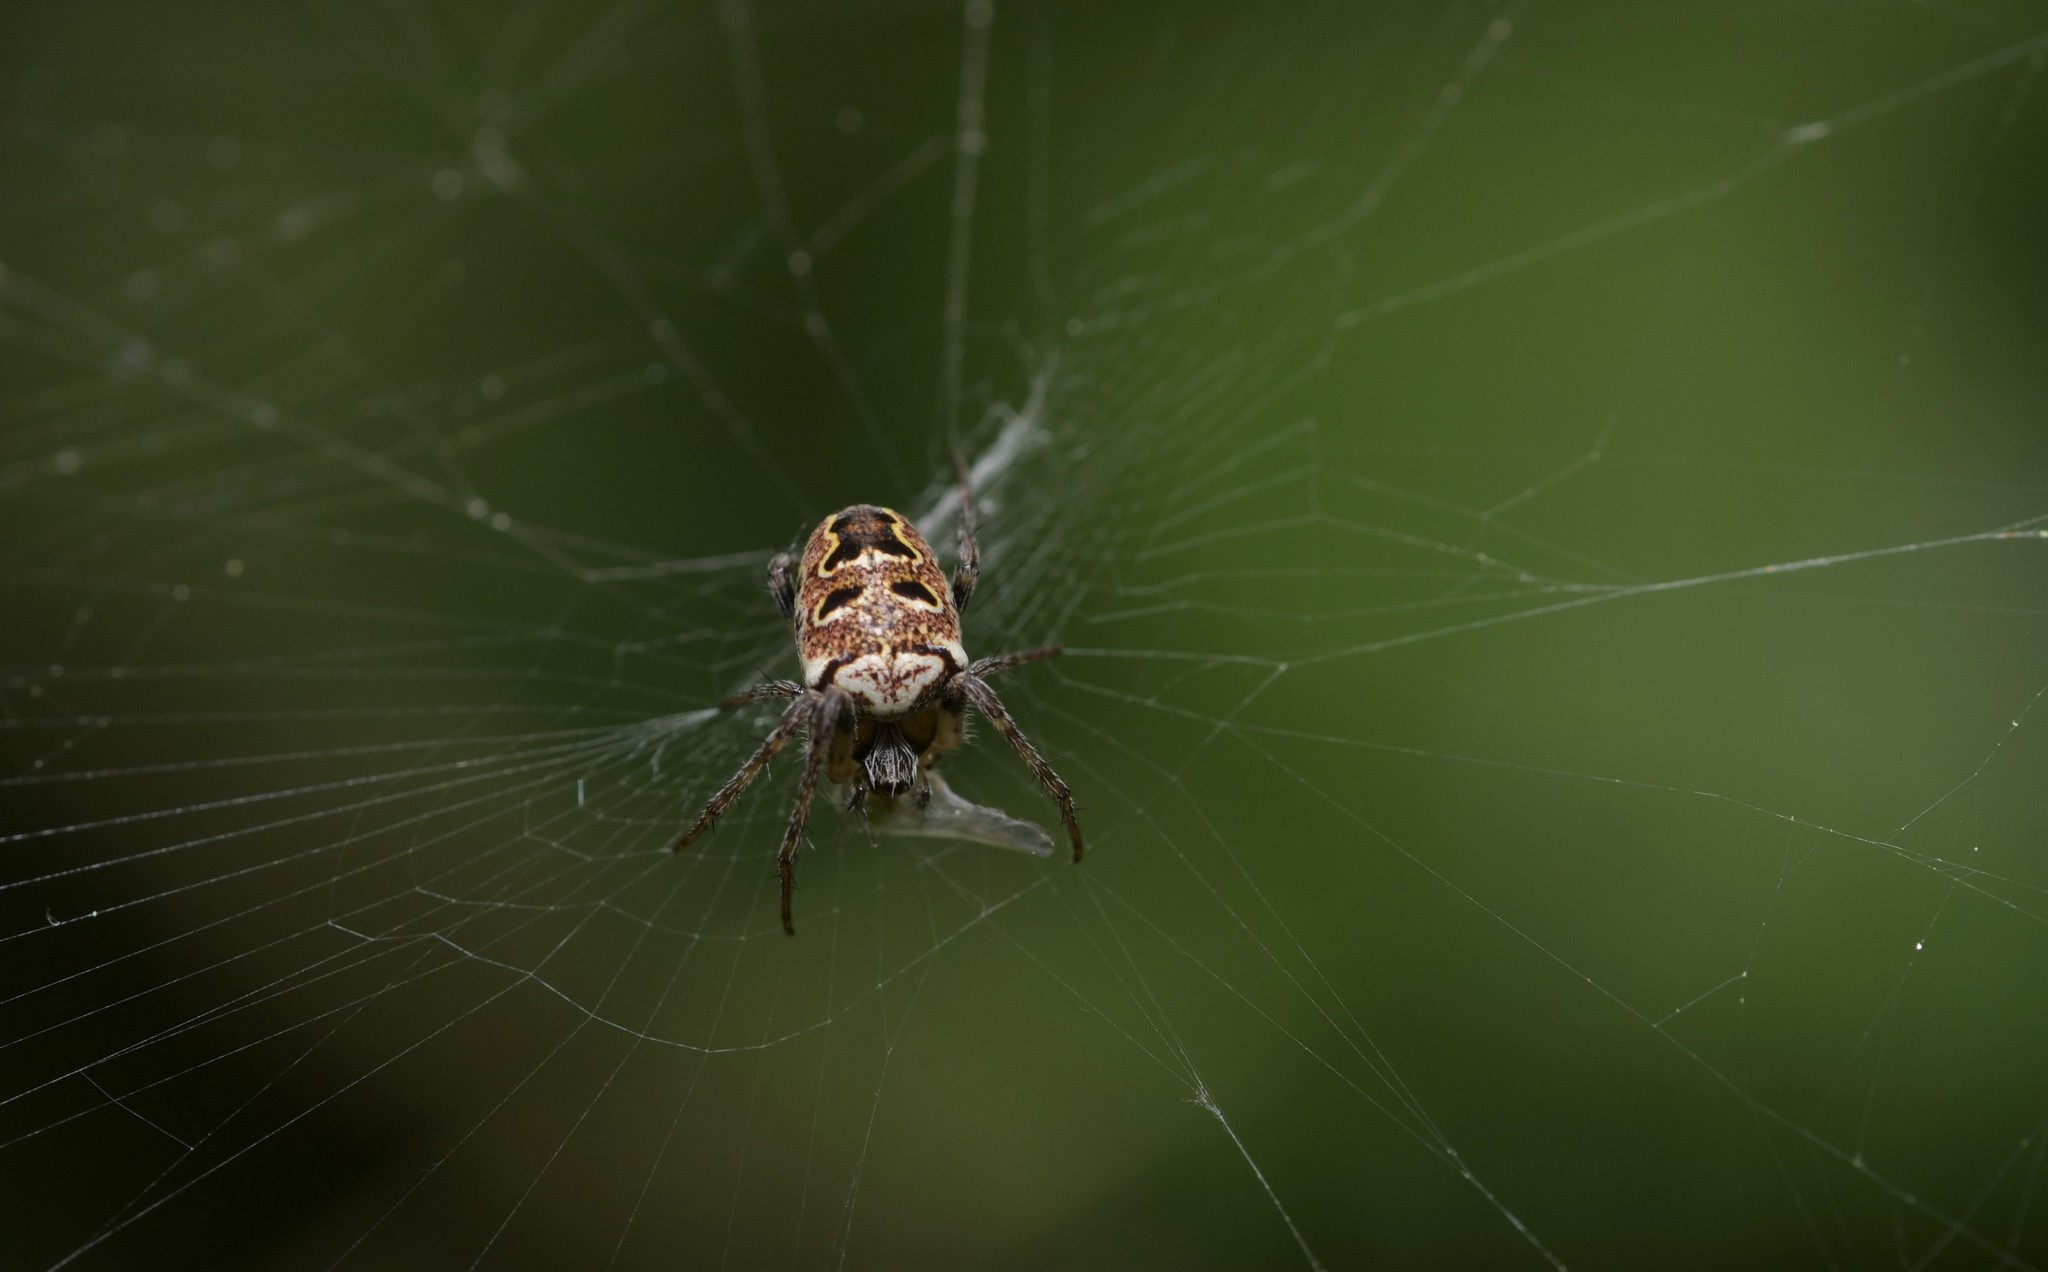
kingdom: Animalia
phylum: Arthropoda
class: Arachnida
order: Araneae
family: Araneidae
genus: Zilla
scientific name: Zilla diodia
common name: Zilla diodia
